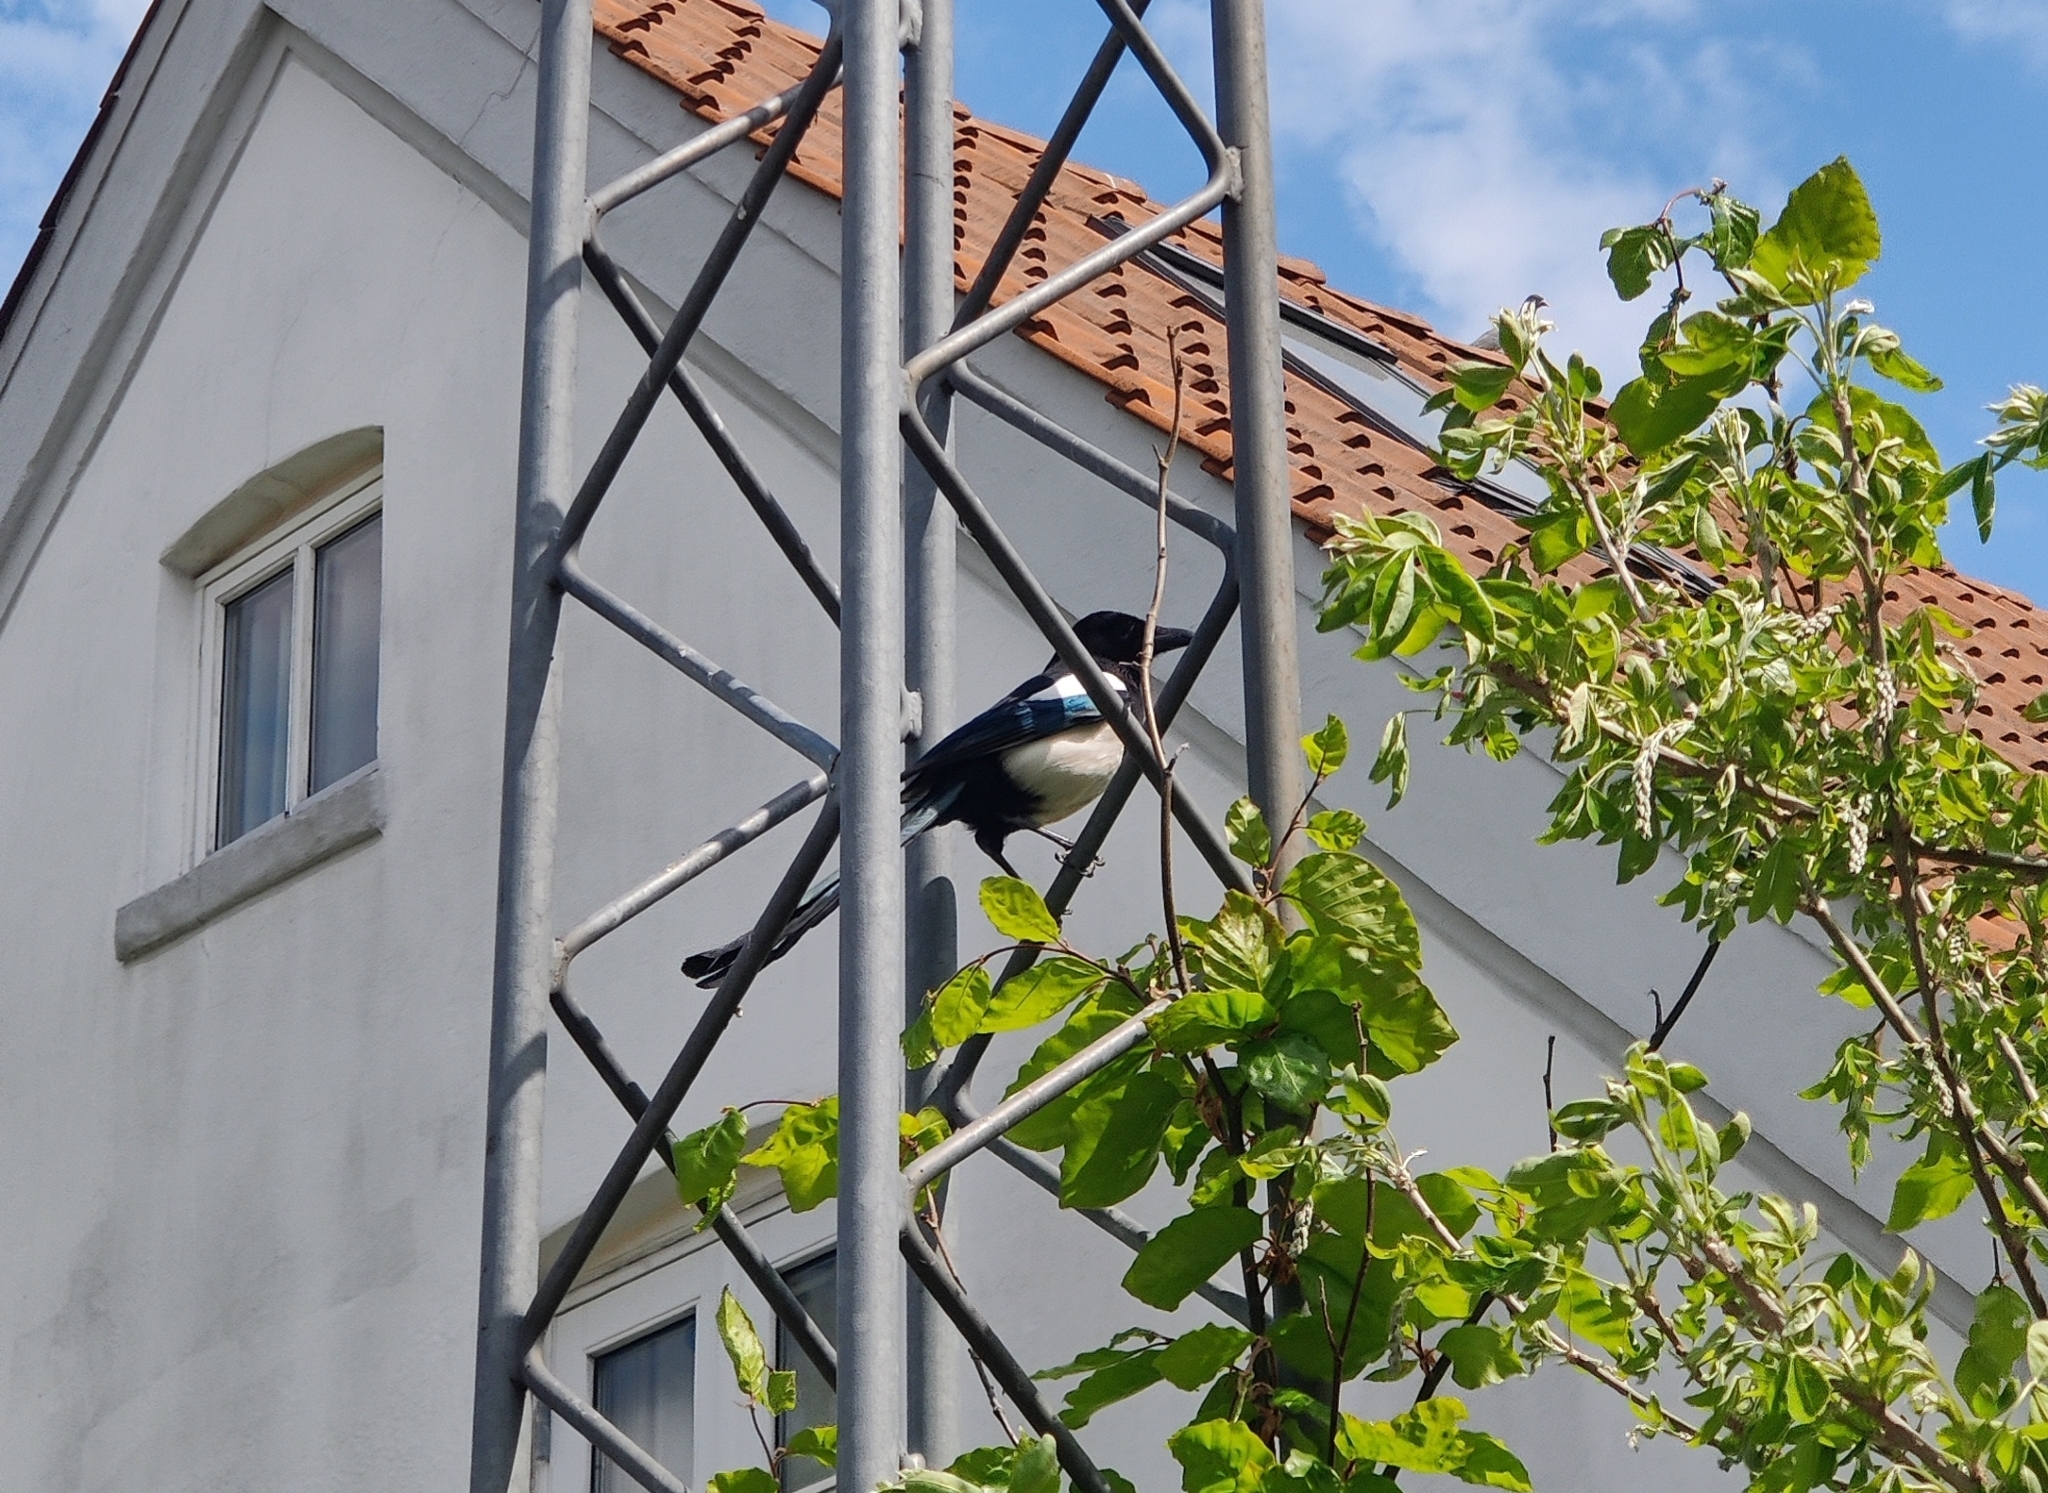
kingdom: Animalia
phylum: Chordata
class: Aves
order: Passeriformes
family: Corvidae
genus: Pica
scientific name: Pica pica
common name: Eurasian magpie
